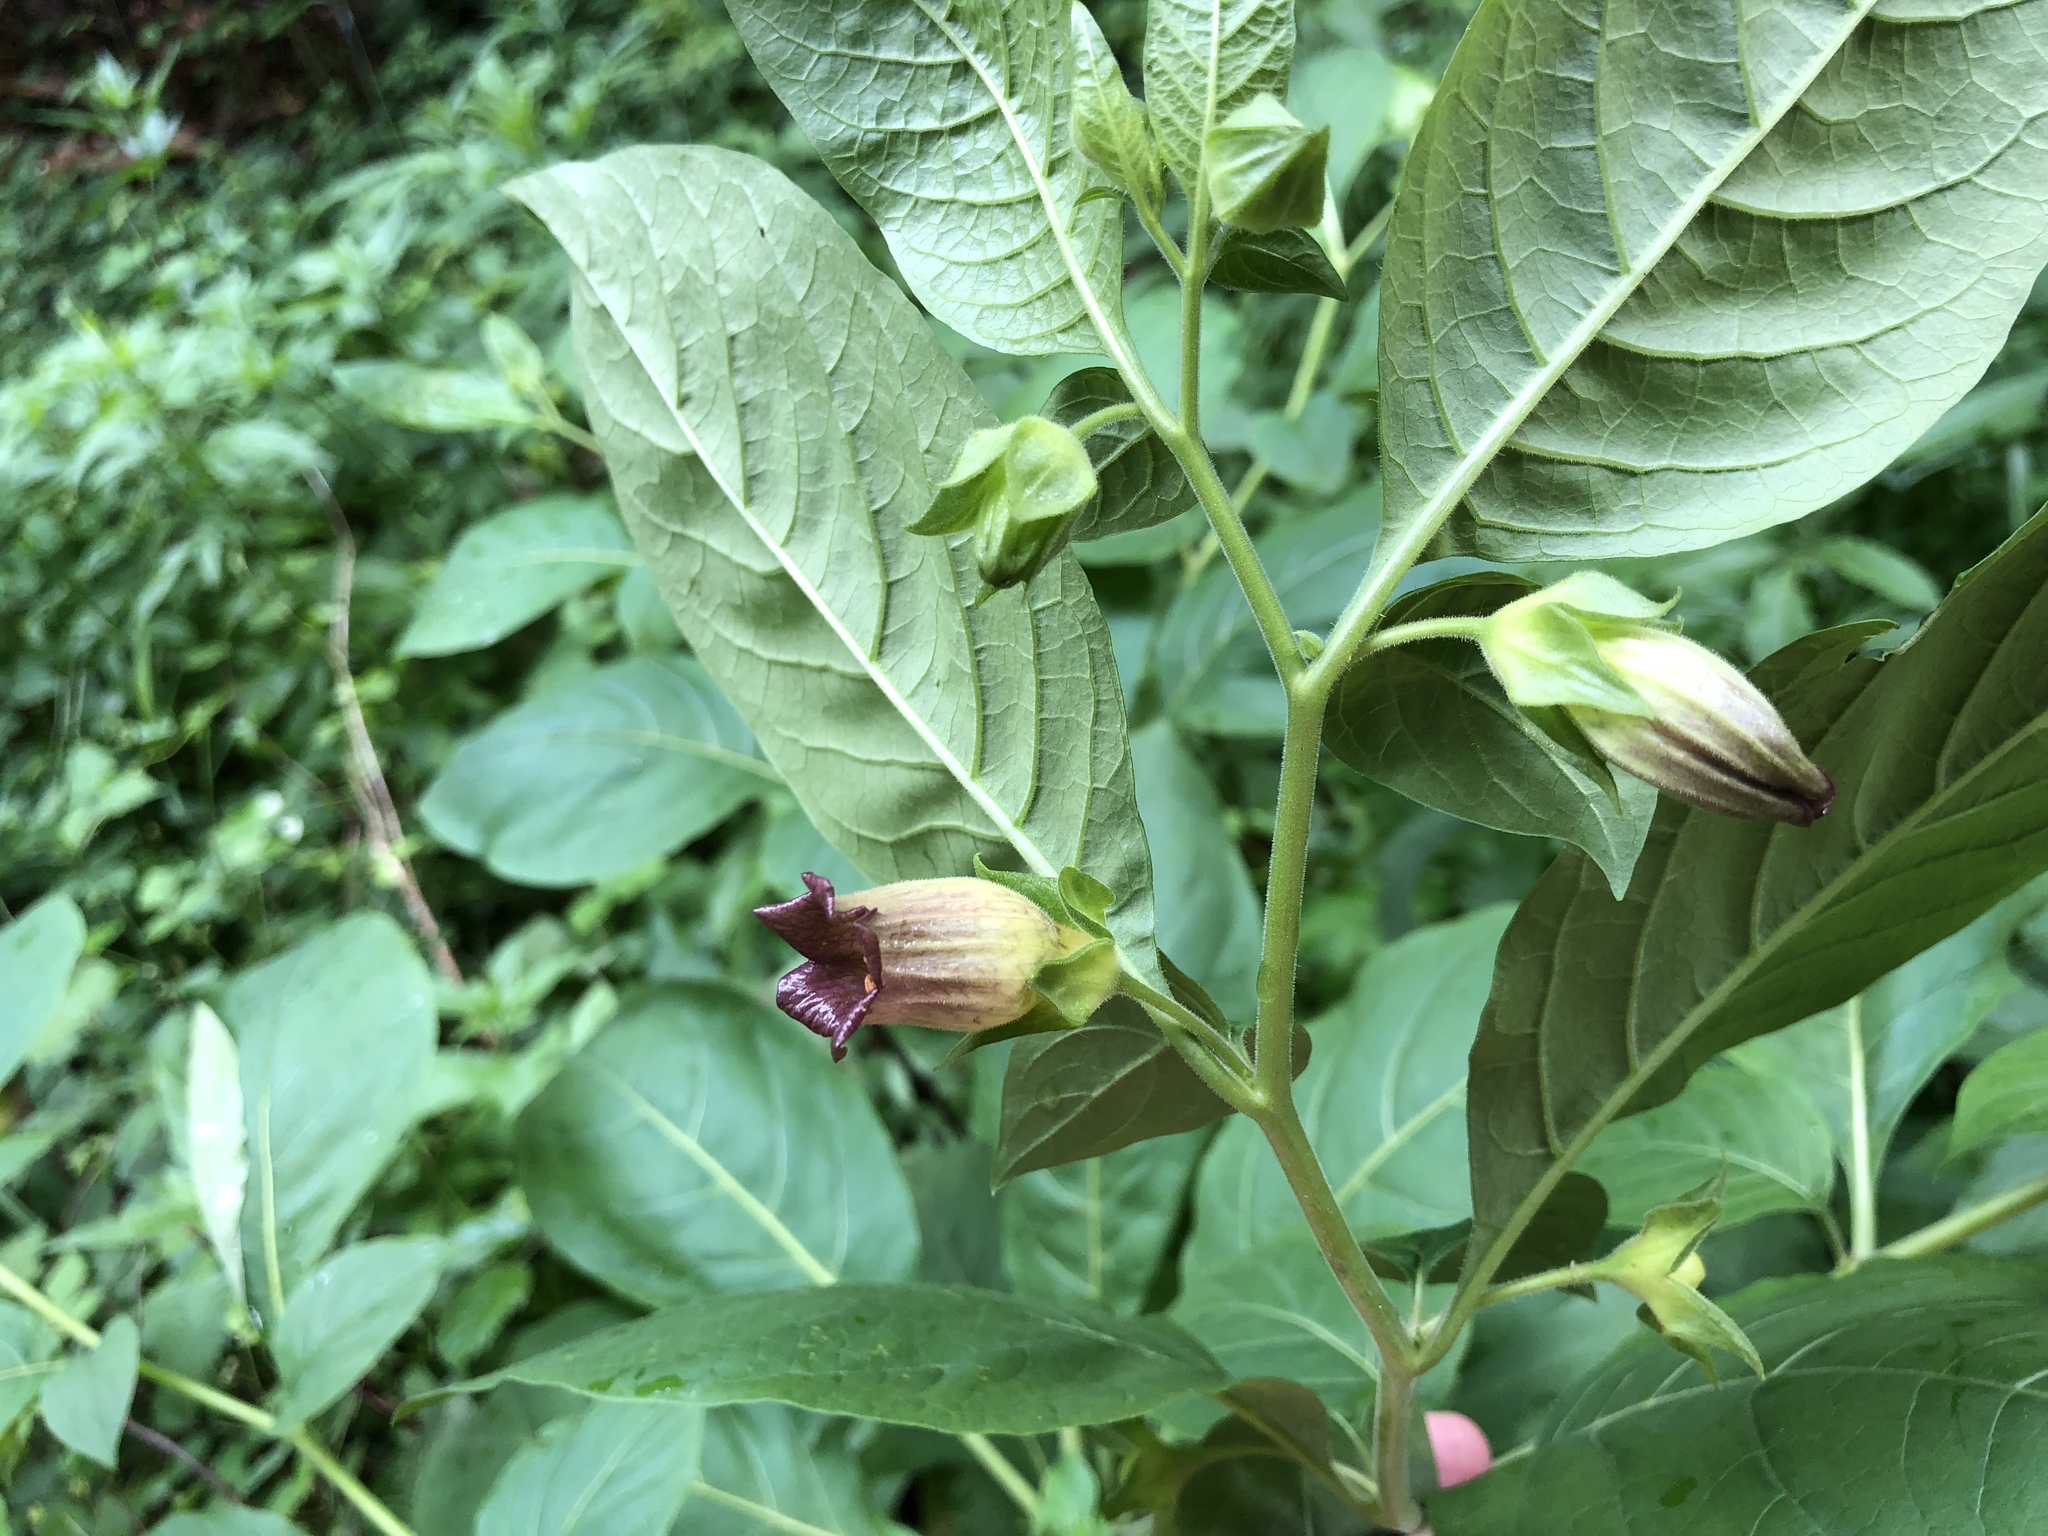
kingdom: Plantae
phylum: Tracheophyta
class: Magnoliopsida
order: Solanales
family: Solanaceae
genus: Atropa
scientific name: Atropa belladonna
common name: Deadly nightshade
